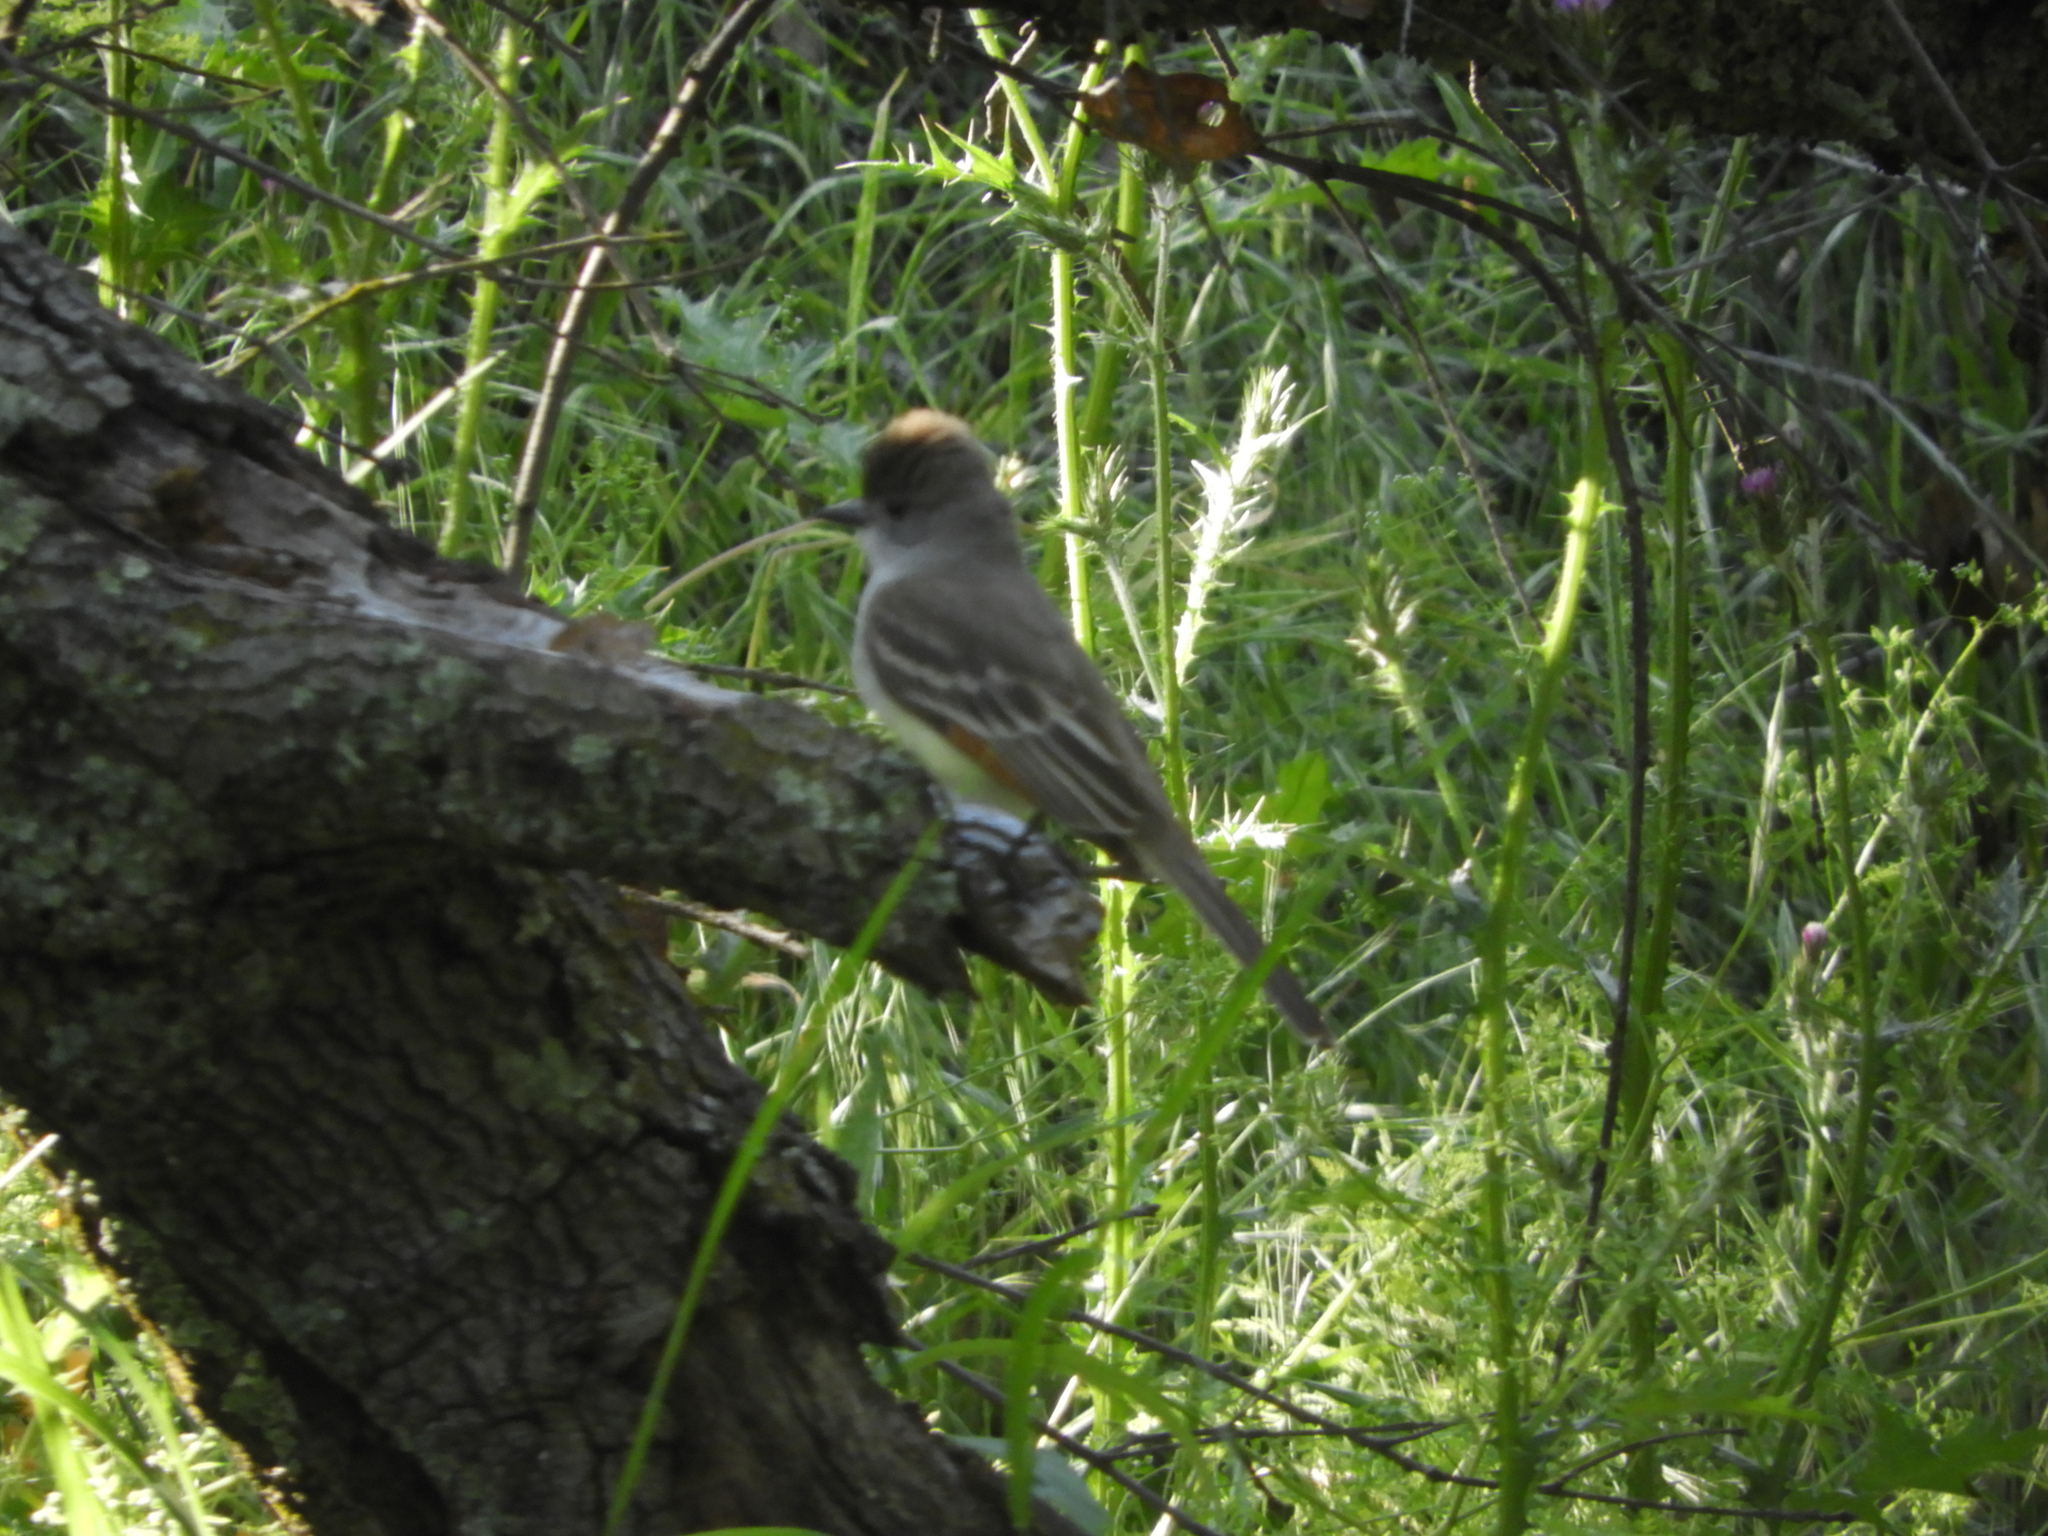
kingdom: Animalia
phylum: Chordata
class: Aves
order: Passeriformes
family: Tyrannidae
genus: Myiarchus
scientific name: Myiarchus cinerascens
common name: Ash-throated flycatcher
